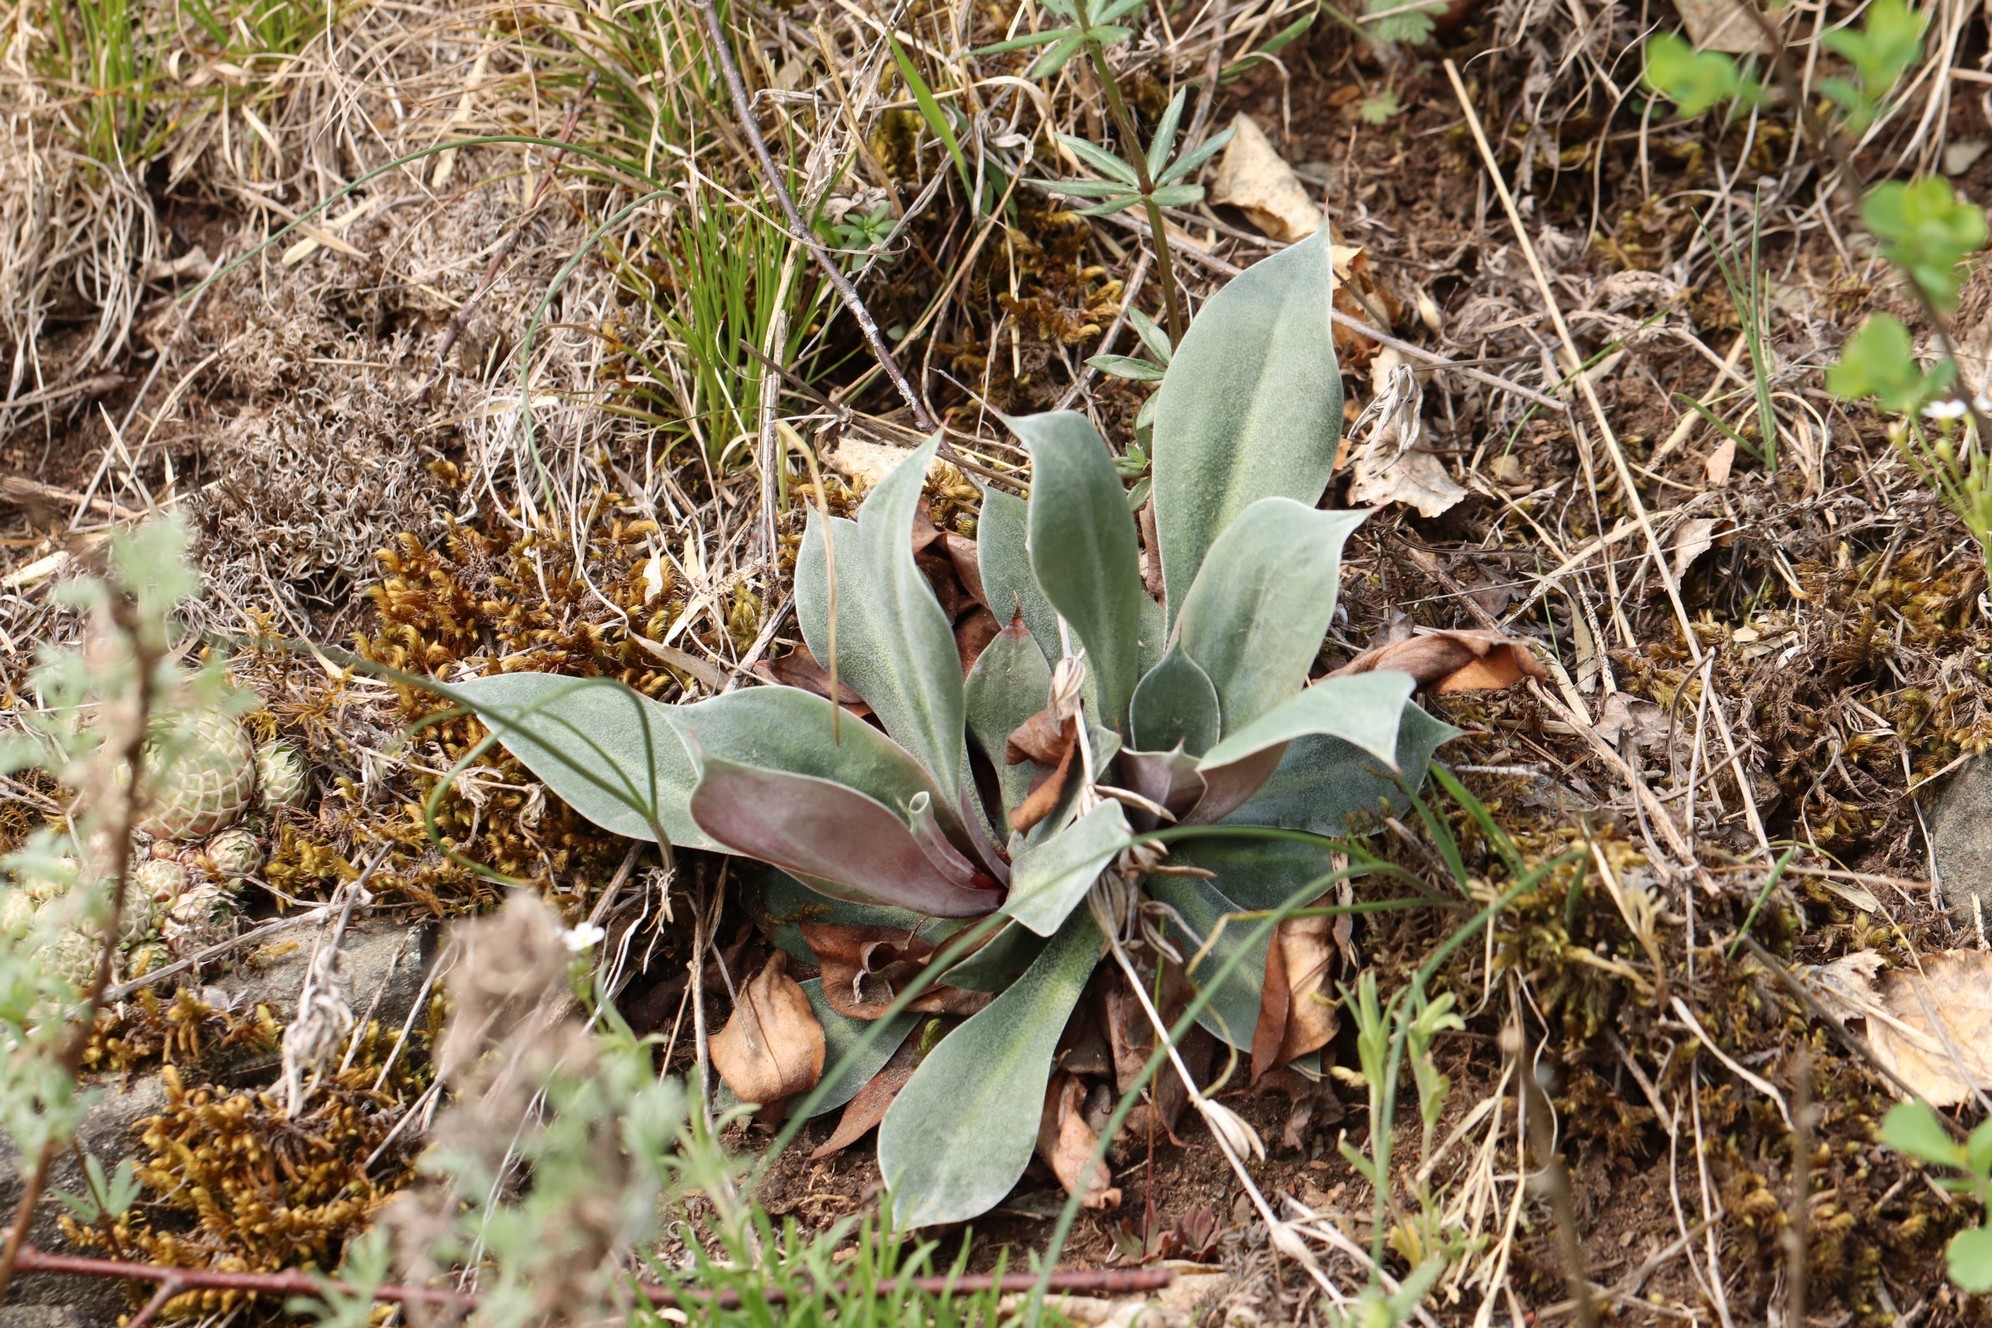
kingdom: Plantae
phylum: Tracheophyta
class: Magnoliopsida
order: Caryophyllales
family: Plumbaginaceae
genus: Goniolimon
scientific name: Goniolimon speciosum
